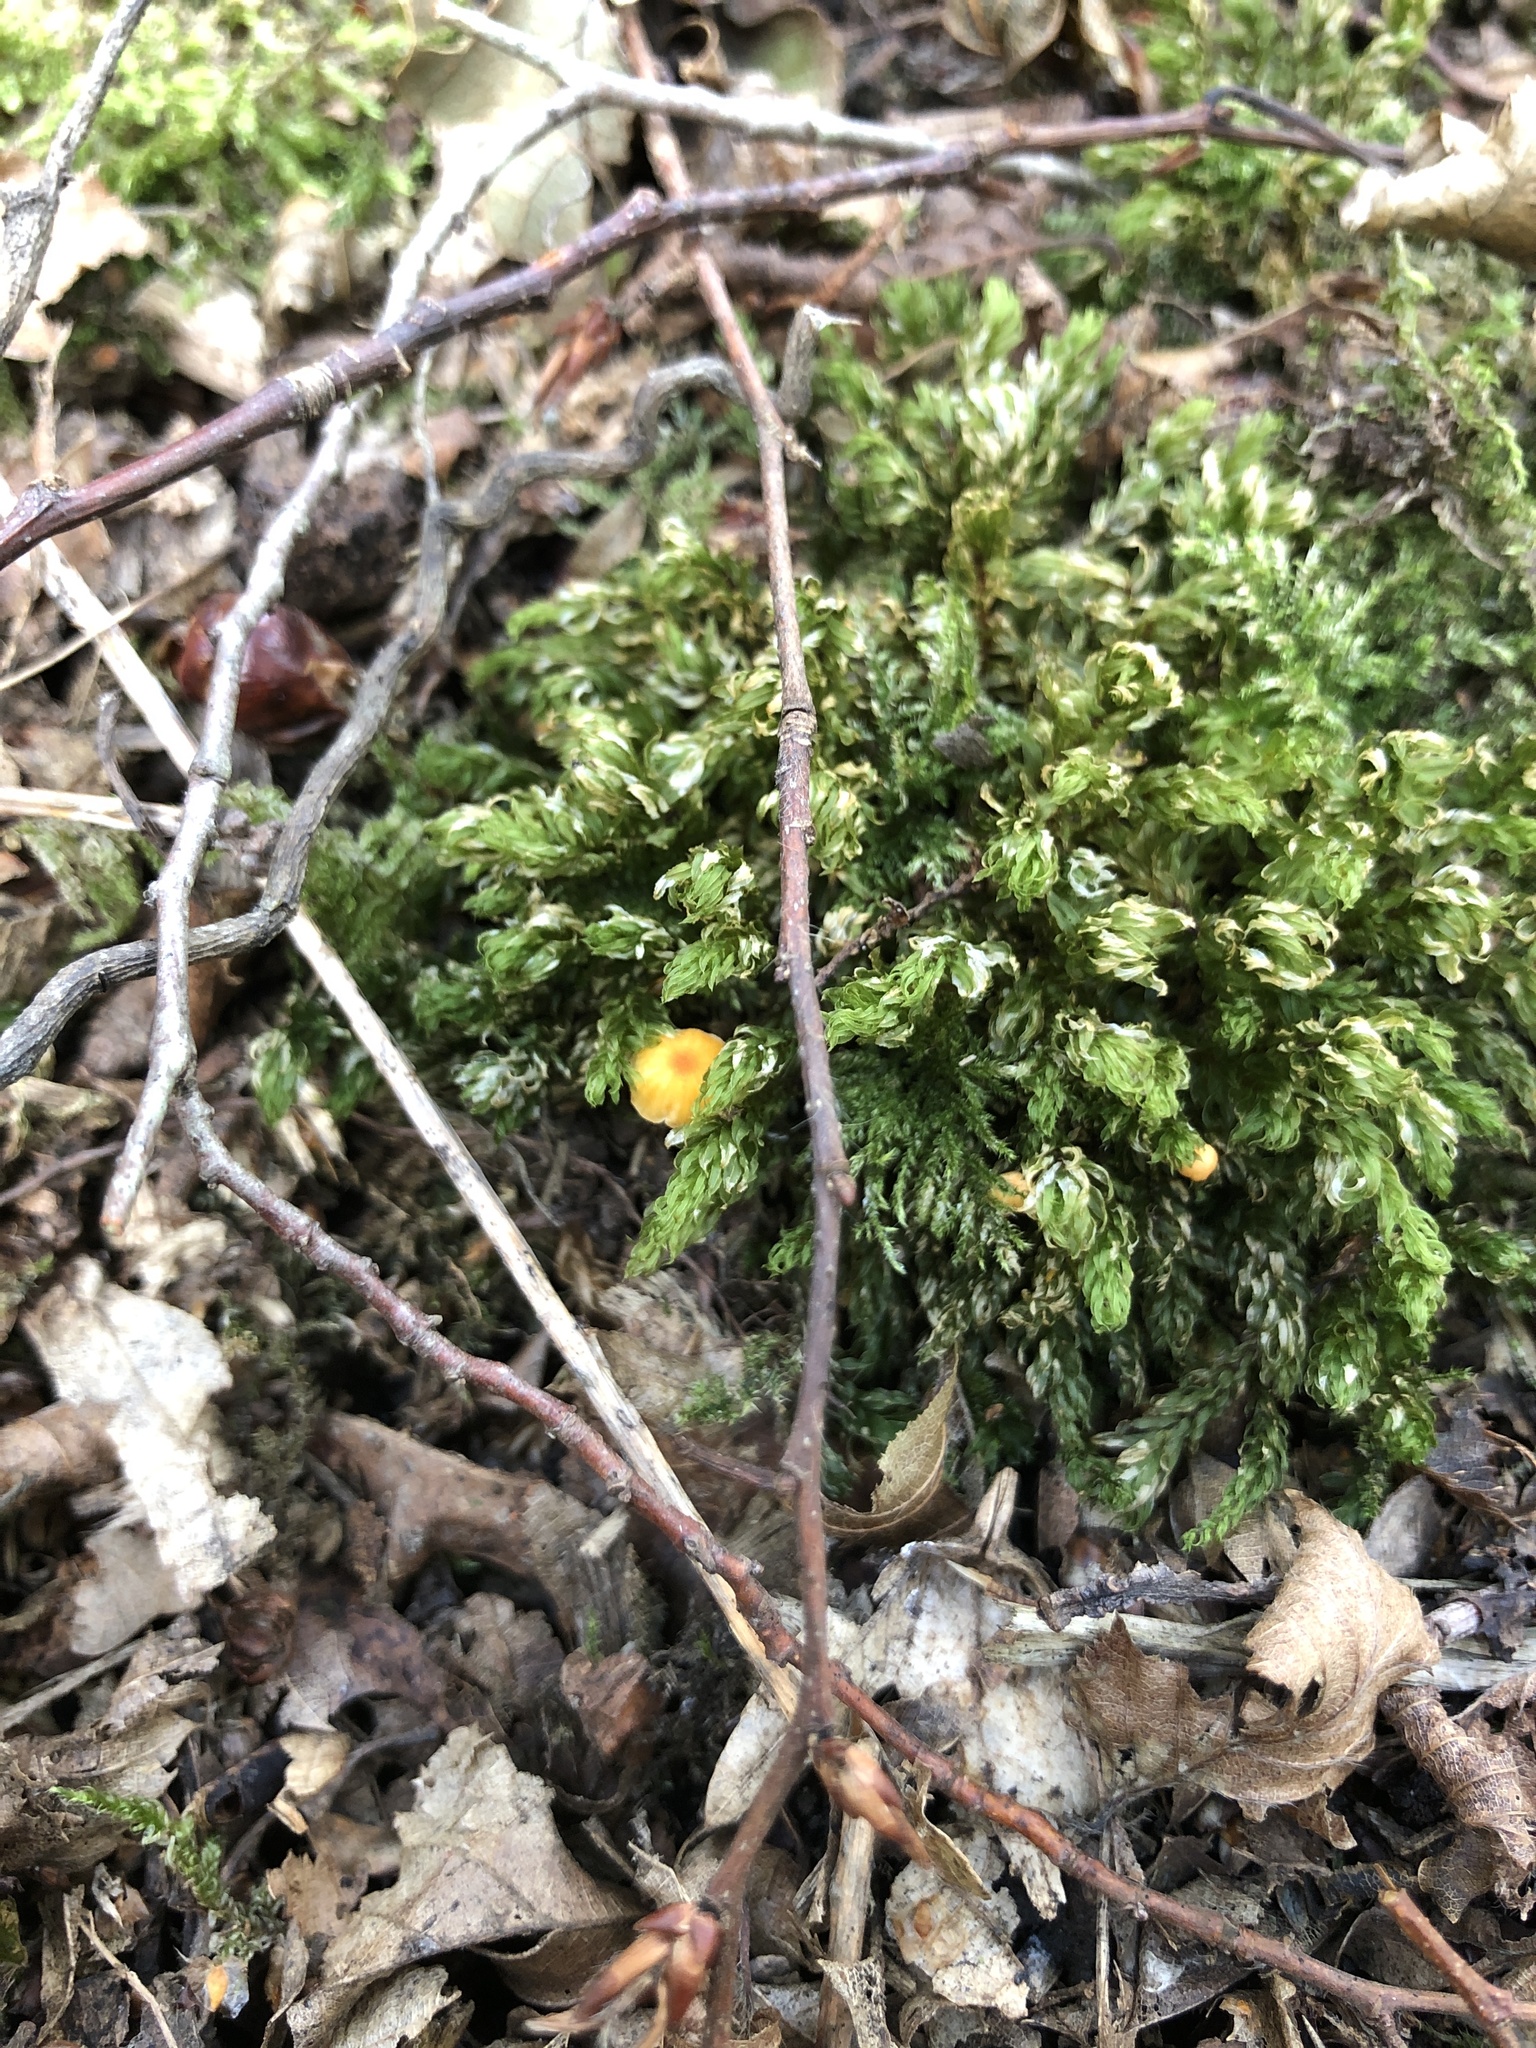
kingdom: Fungi
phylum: Basidiomycota
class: Agaricomycetes
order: Hymenochaetales
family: Rickenellaceae
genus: Rickenella
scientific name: Rickenella fibula
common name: Orange mosscap
